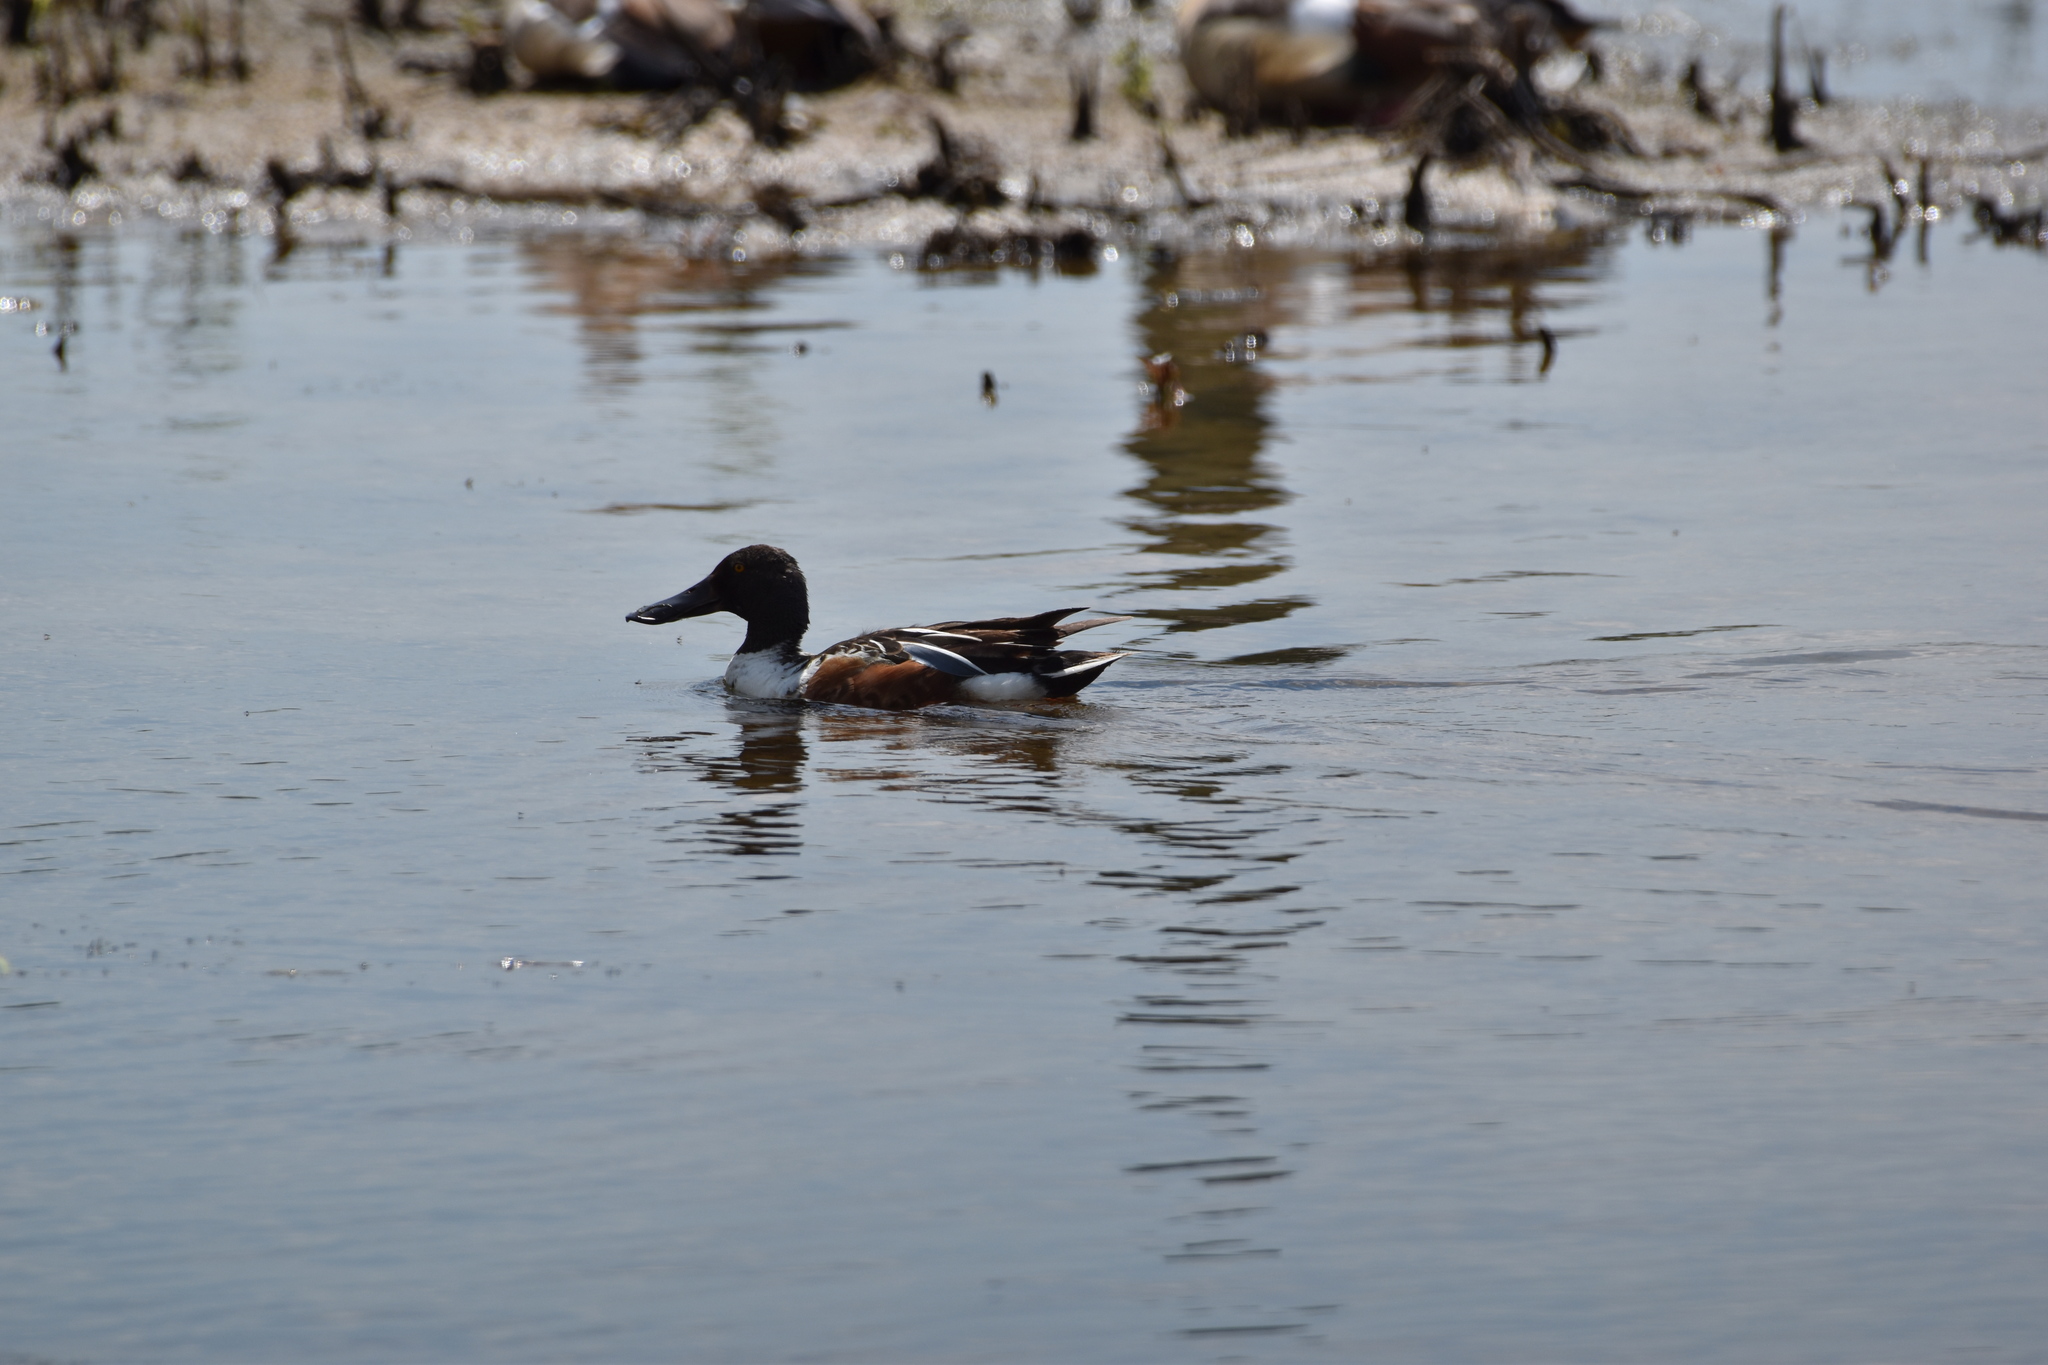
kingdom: Animalia
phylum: Chordata
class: Aves
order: Anseriformes
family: Anatidae
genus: Spatula
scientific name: Spatula clypeata
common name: Northern shoveler
